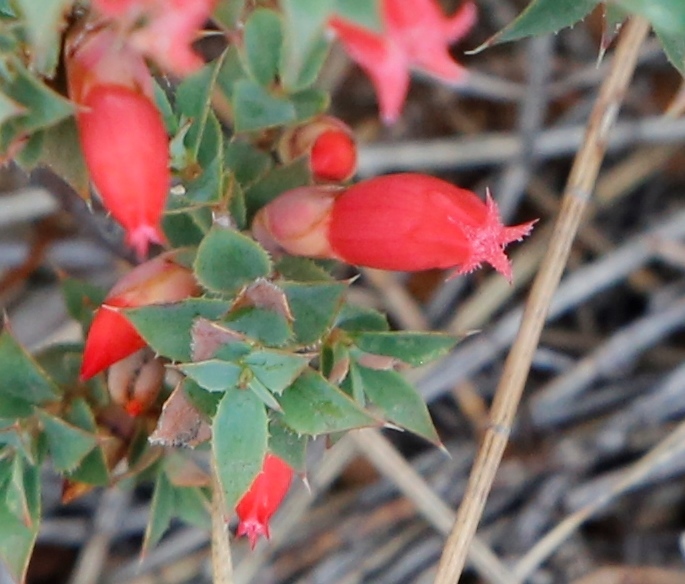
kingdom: Plantae
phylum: Tracheophyta
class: Magnoliopsida
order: Ericales
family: Ericaceae
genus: Styphelia
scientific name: Styphelia serratifolia
